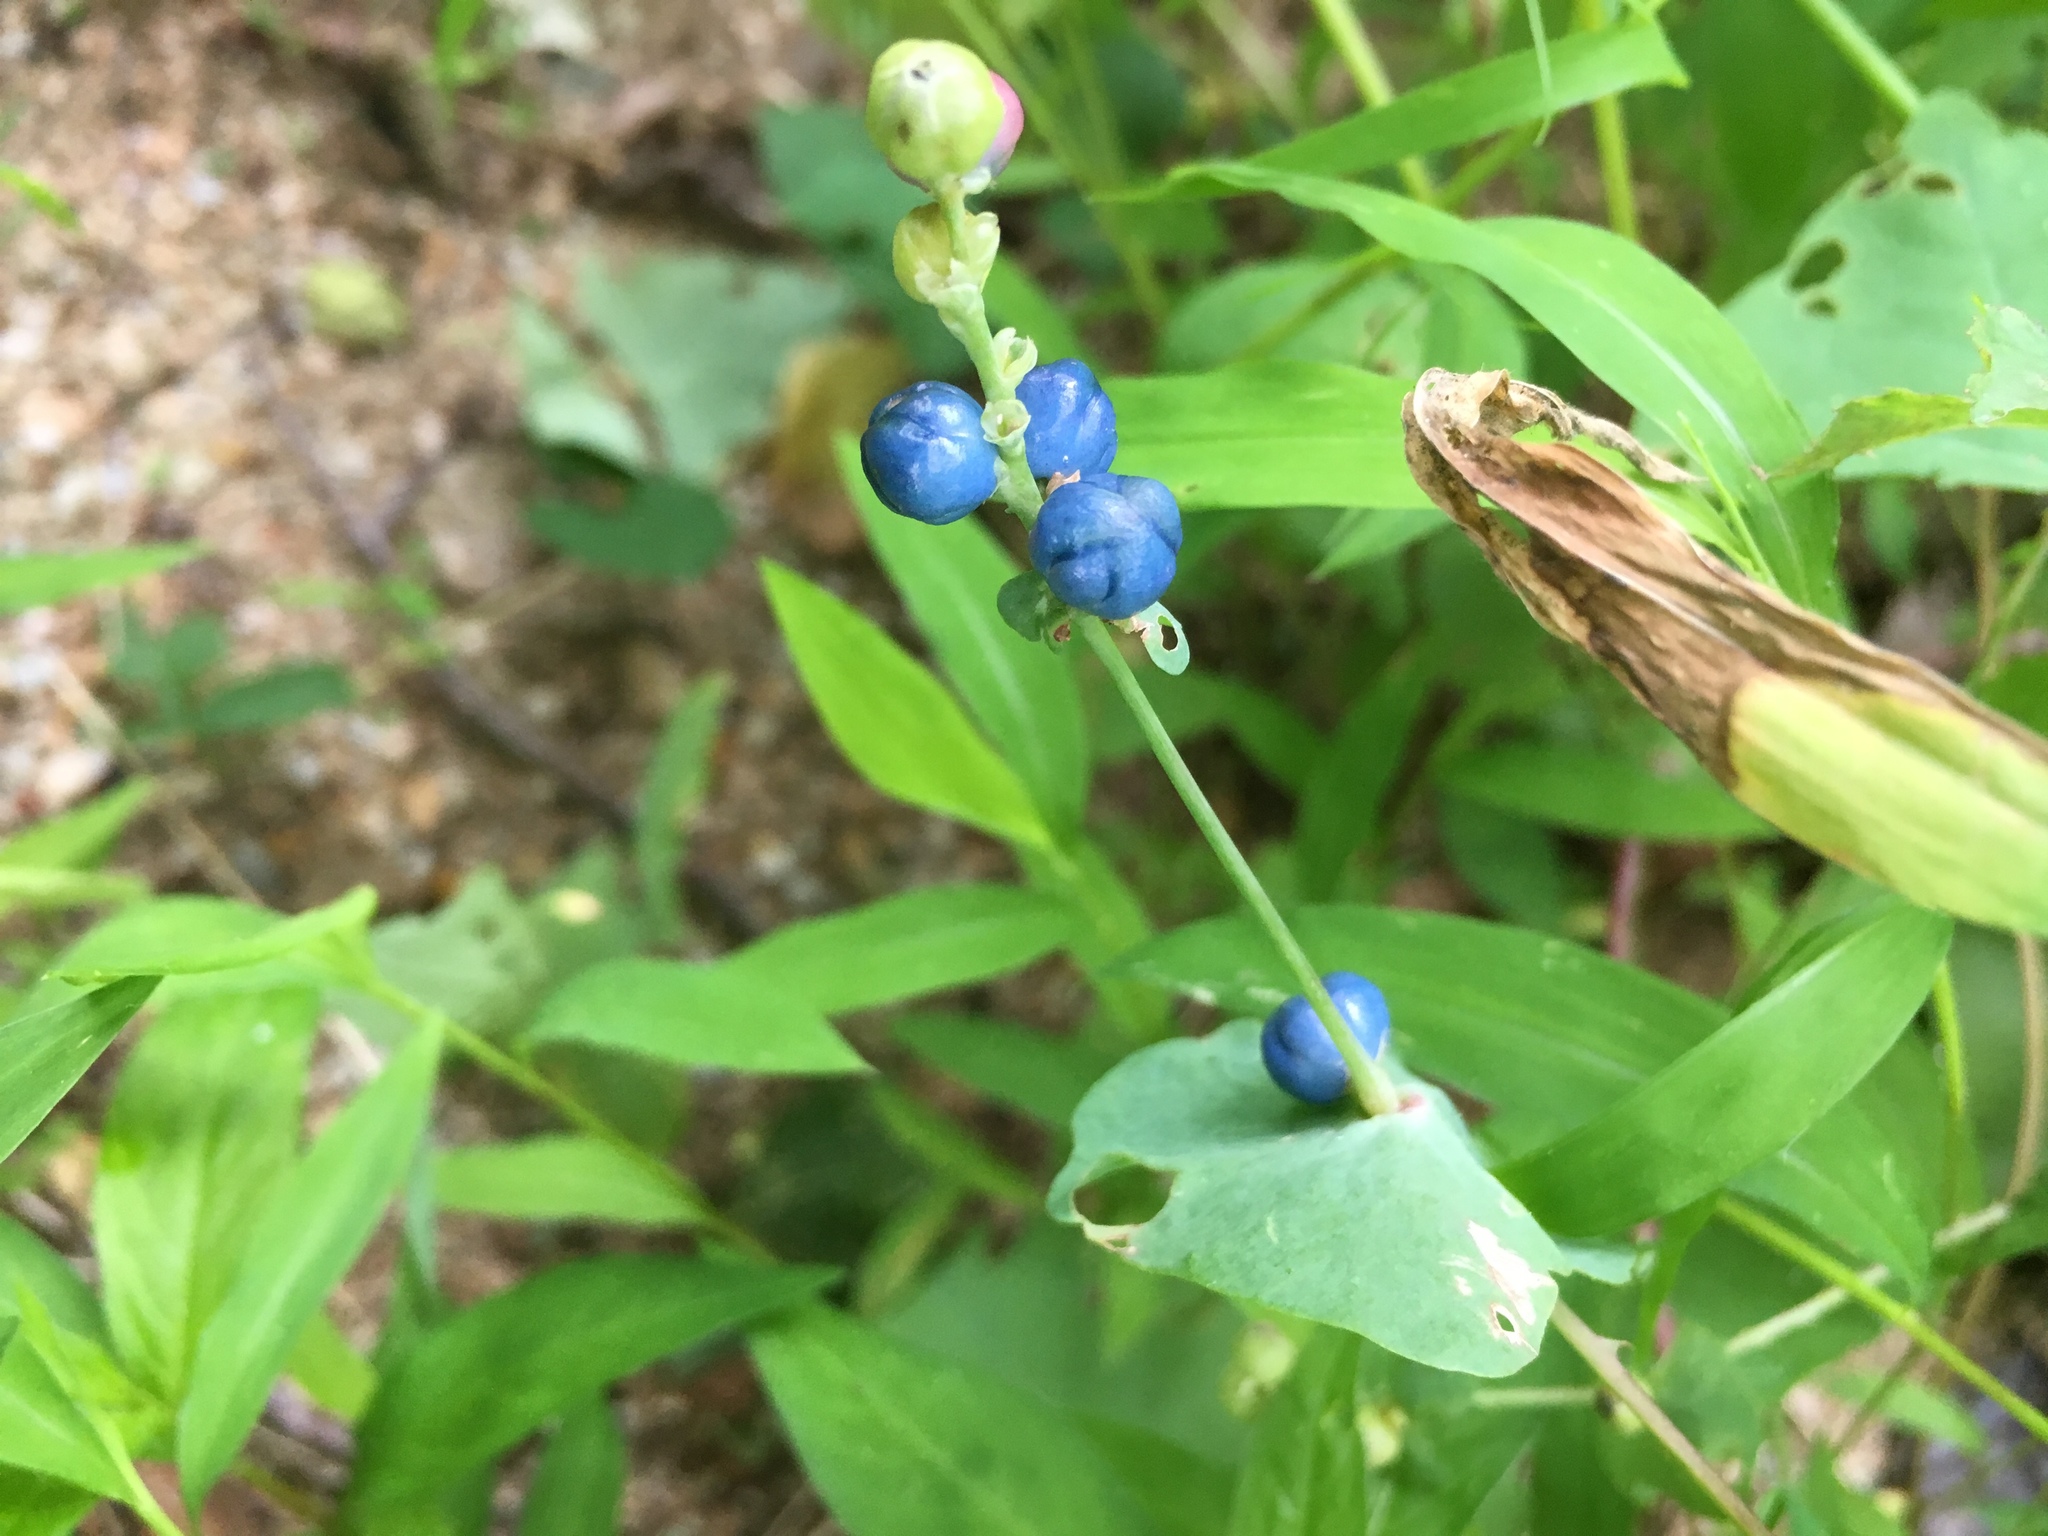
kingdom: Plantae
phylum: Tracheophyta
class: Magnoliopsida
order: Caryophyllales
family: Polygonaceae
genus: Persicaria
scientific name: Persicaria perfoliata
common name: Asiatic tearthumb
